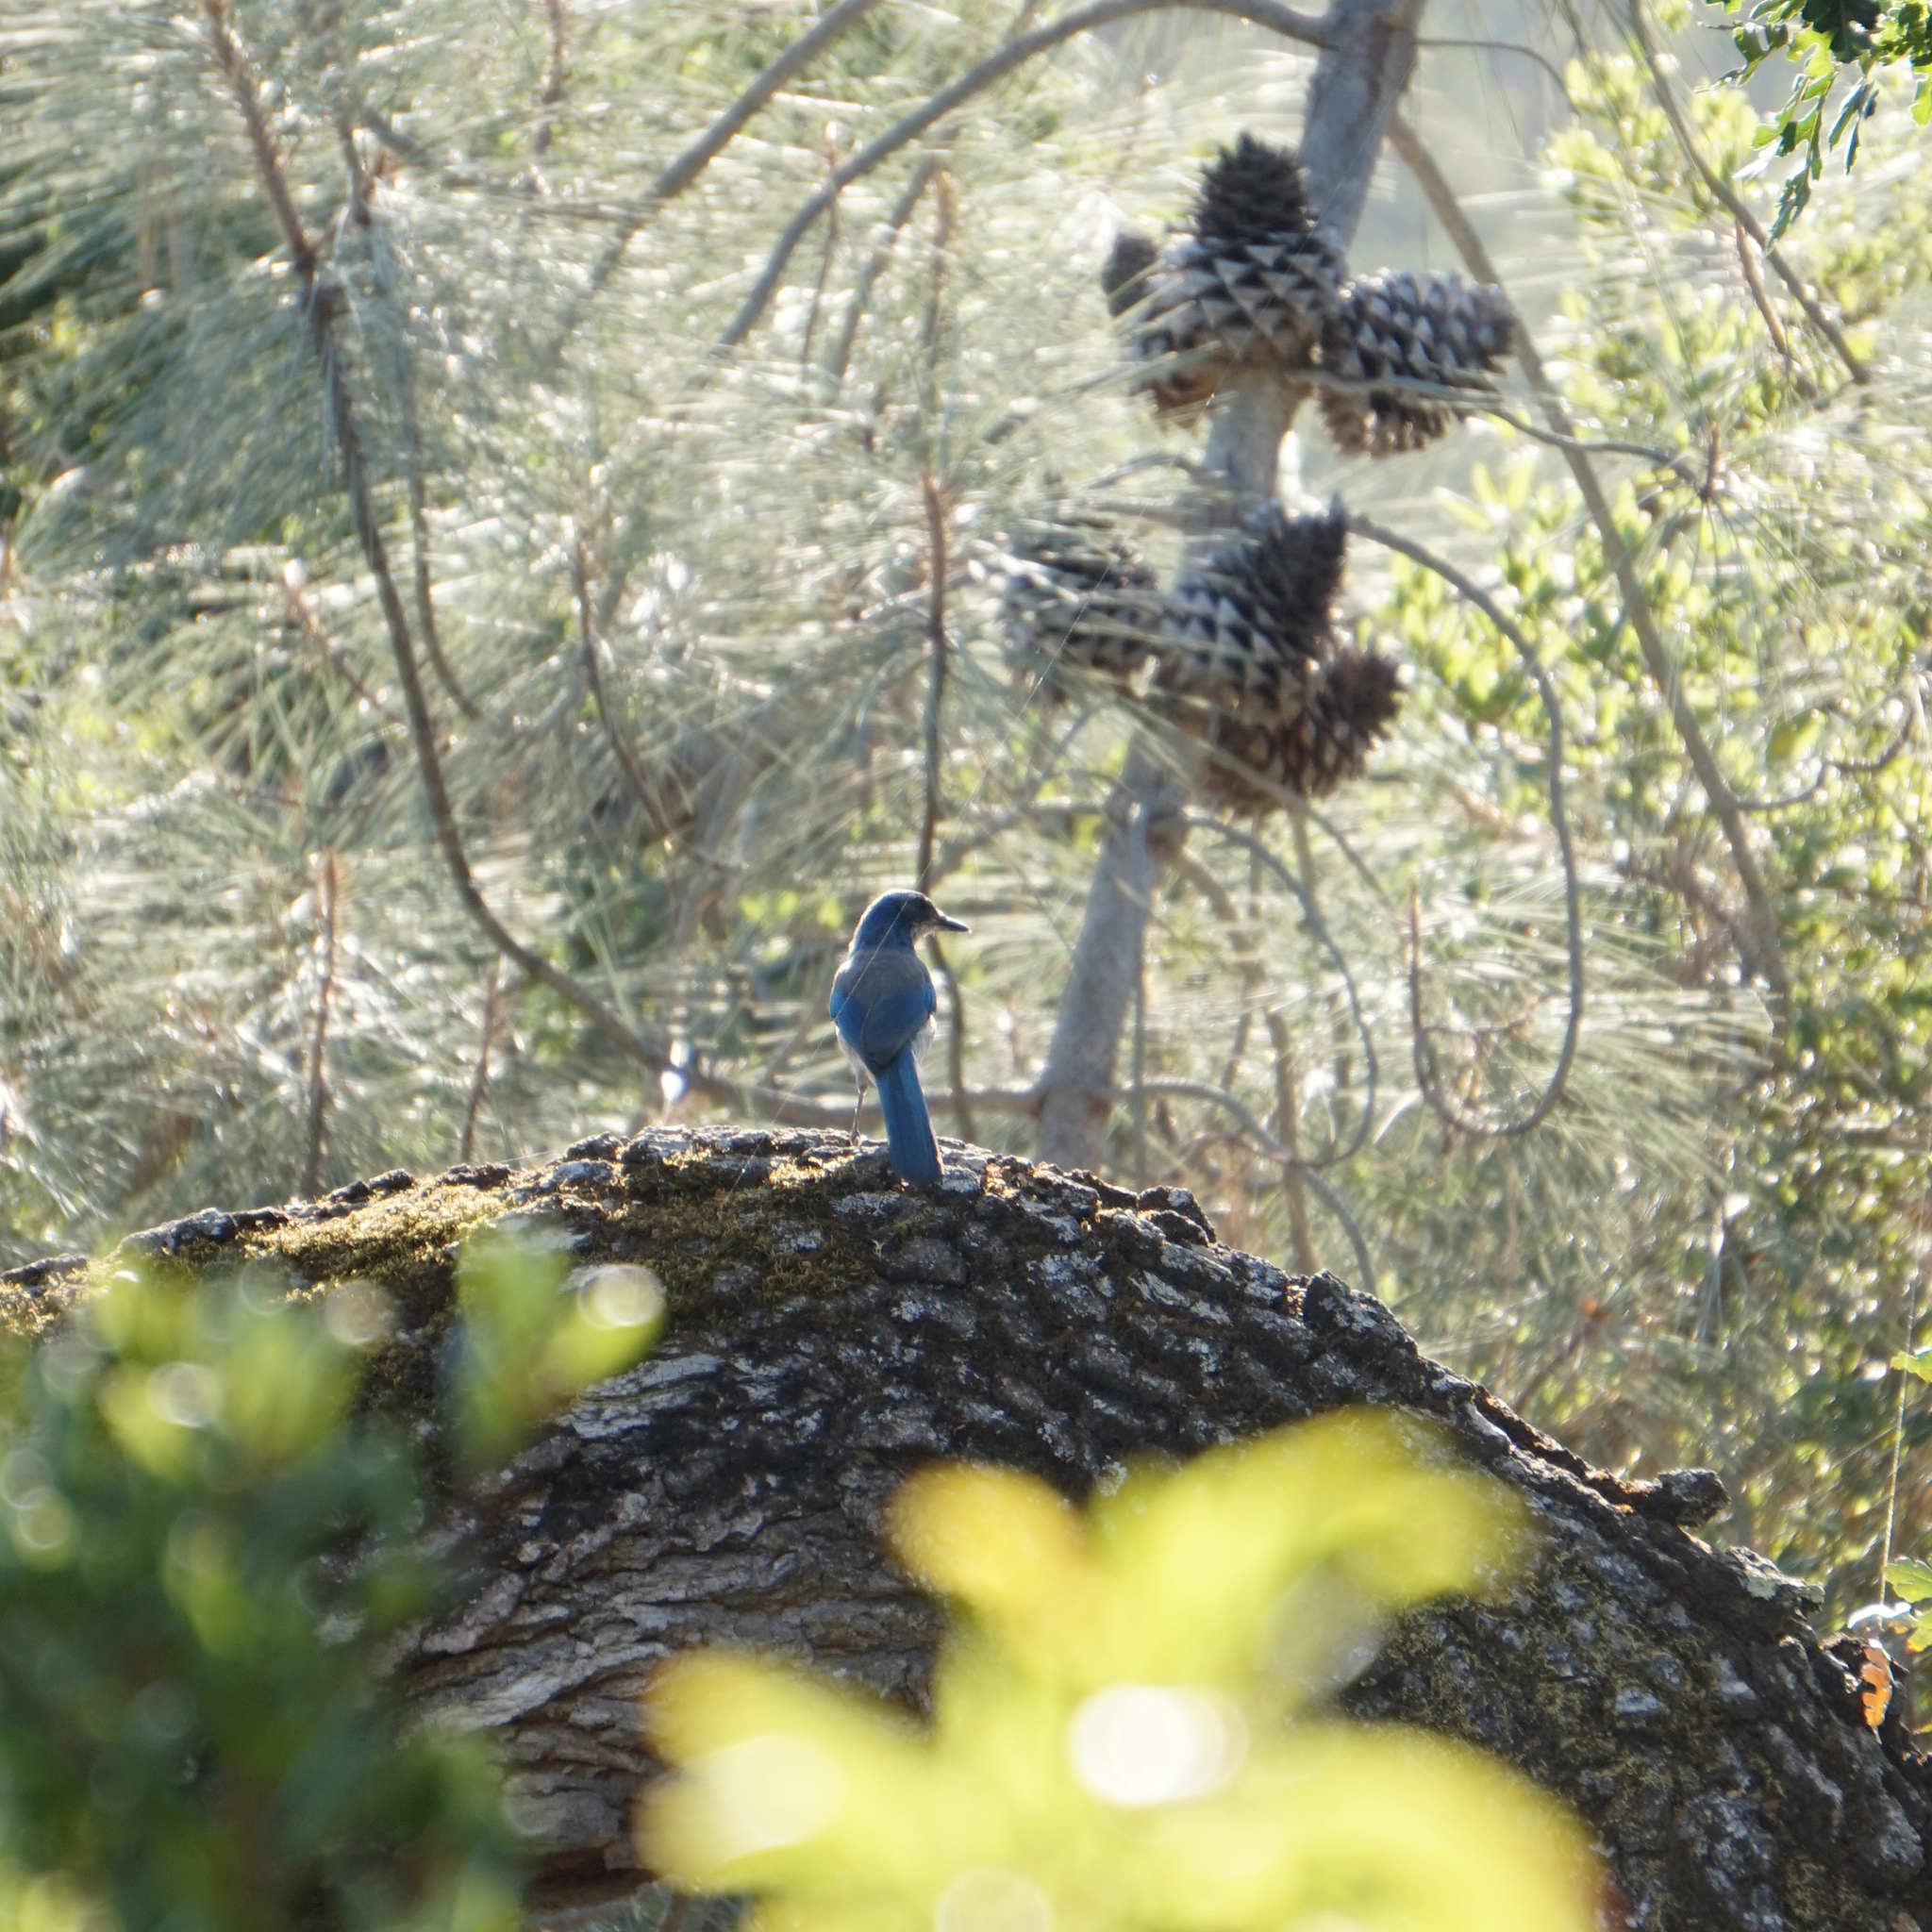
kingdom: Animalia
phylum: Chordata
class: Aves
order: Passeriformes
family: Corvidae
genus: Aphelocoma
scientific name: Aphelocoma californica
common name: California scrub-jay
